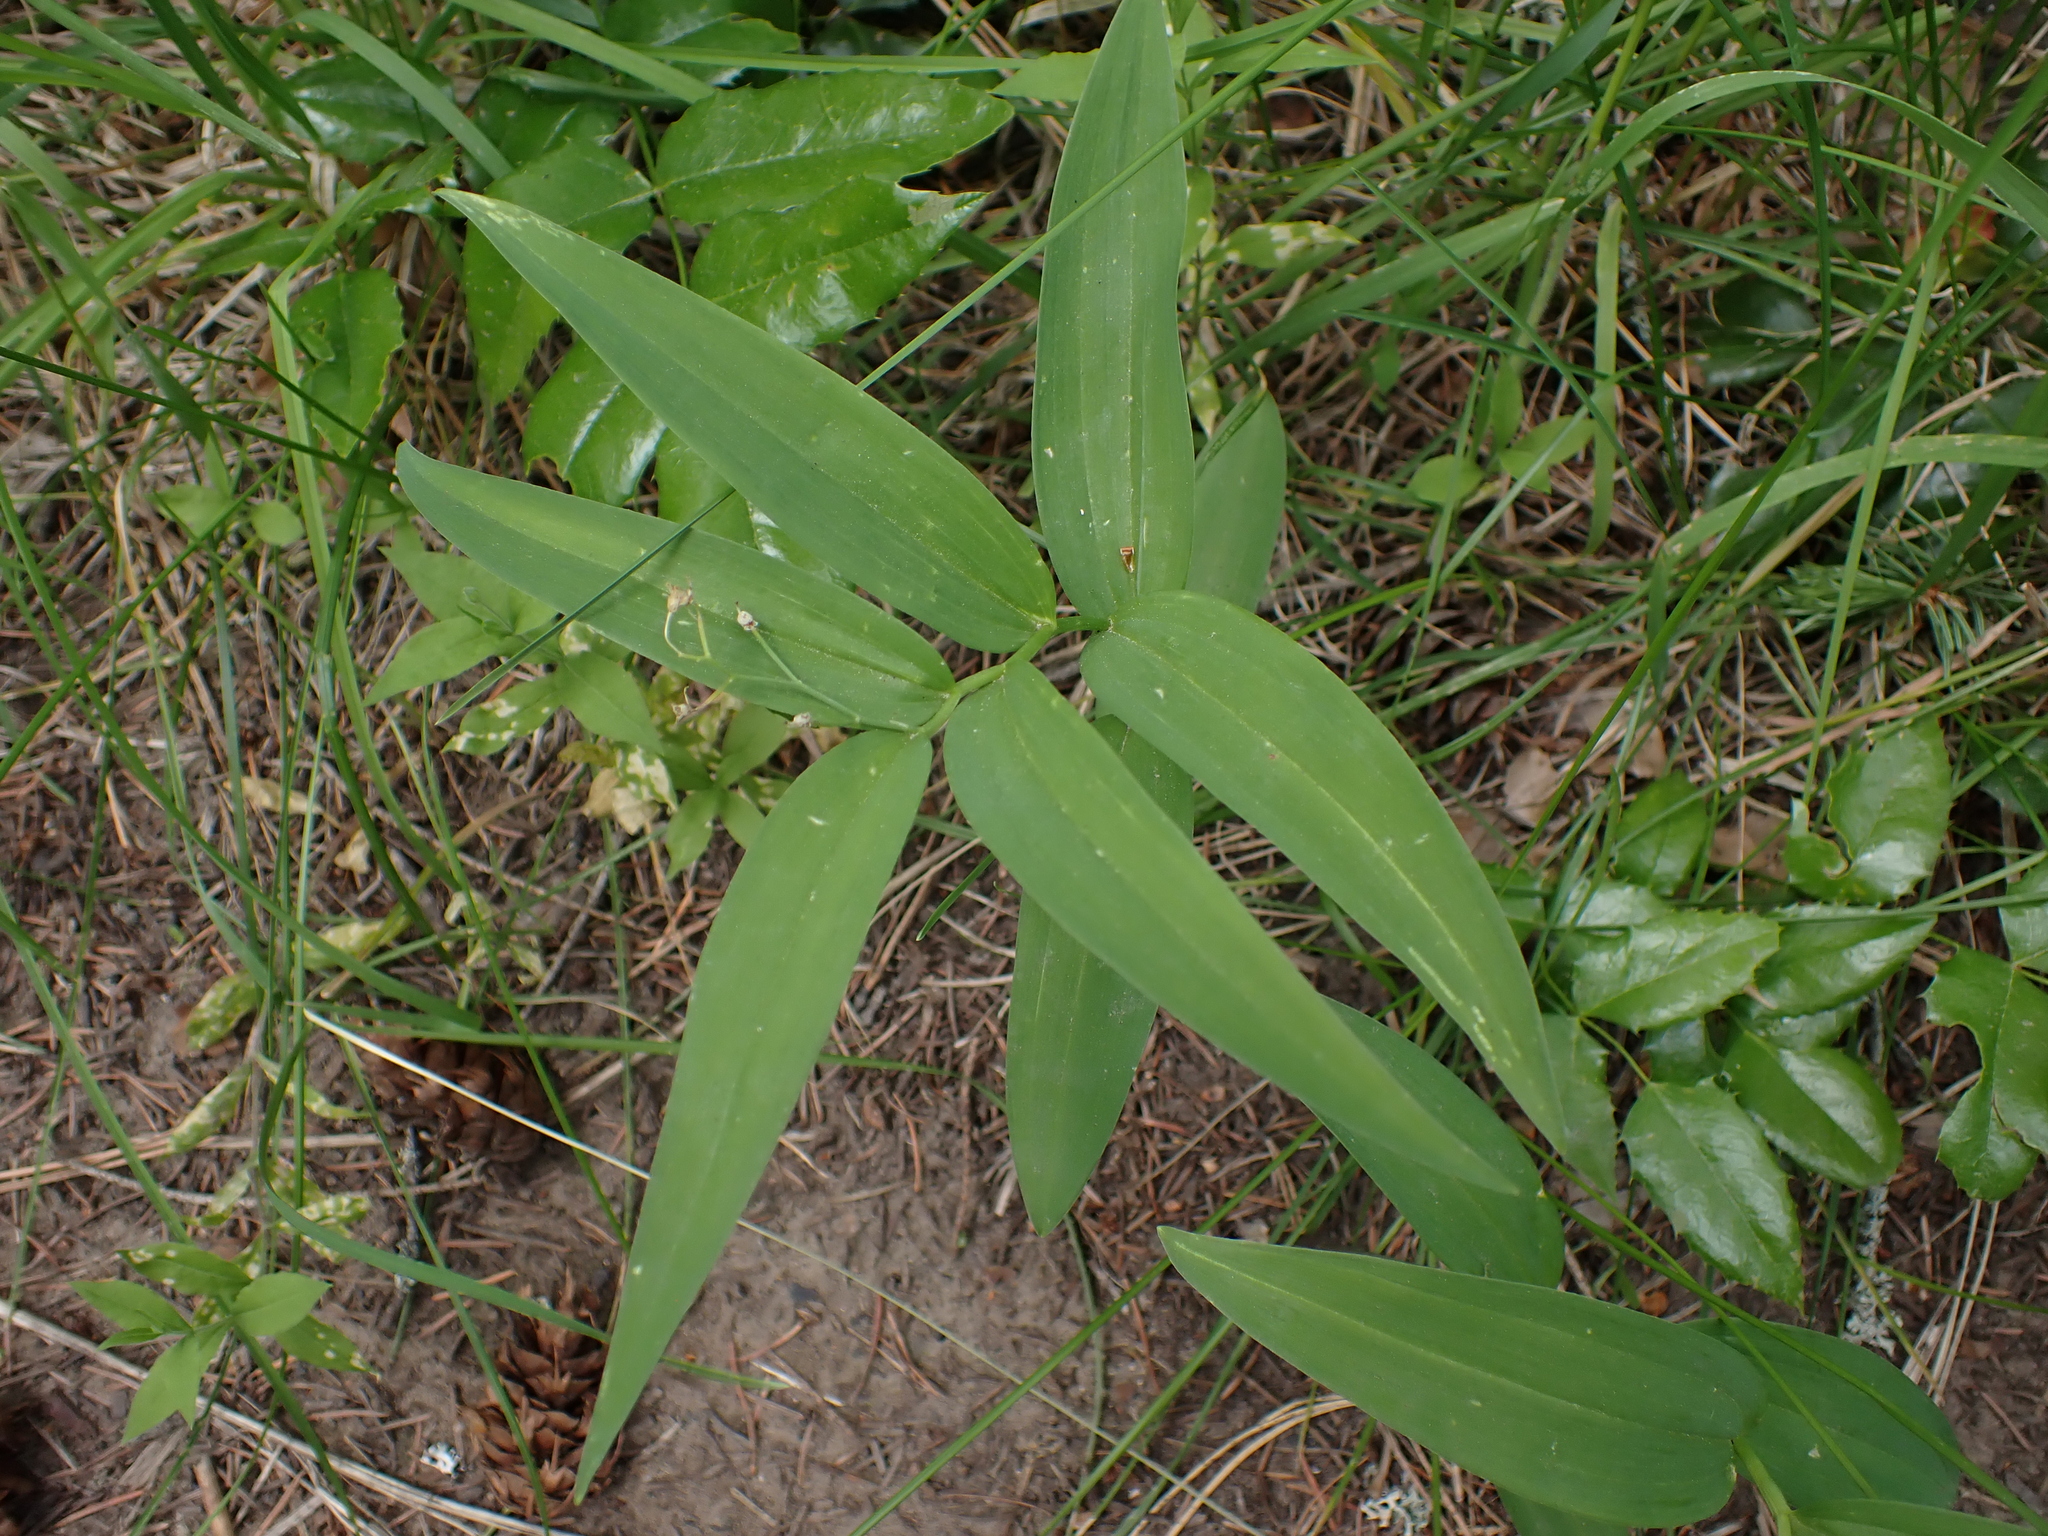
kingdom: Plantae
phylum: Tracheophyta
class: Liliopsida
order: Asparagales
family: Asparagaceae
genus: Maianthemum
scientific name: Maianthemum stellatum
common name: Little false solomon's seal
